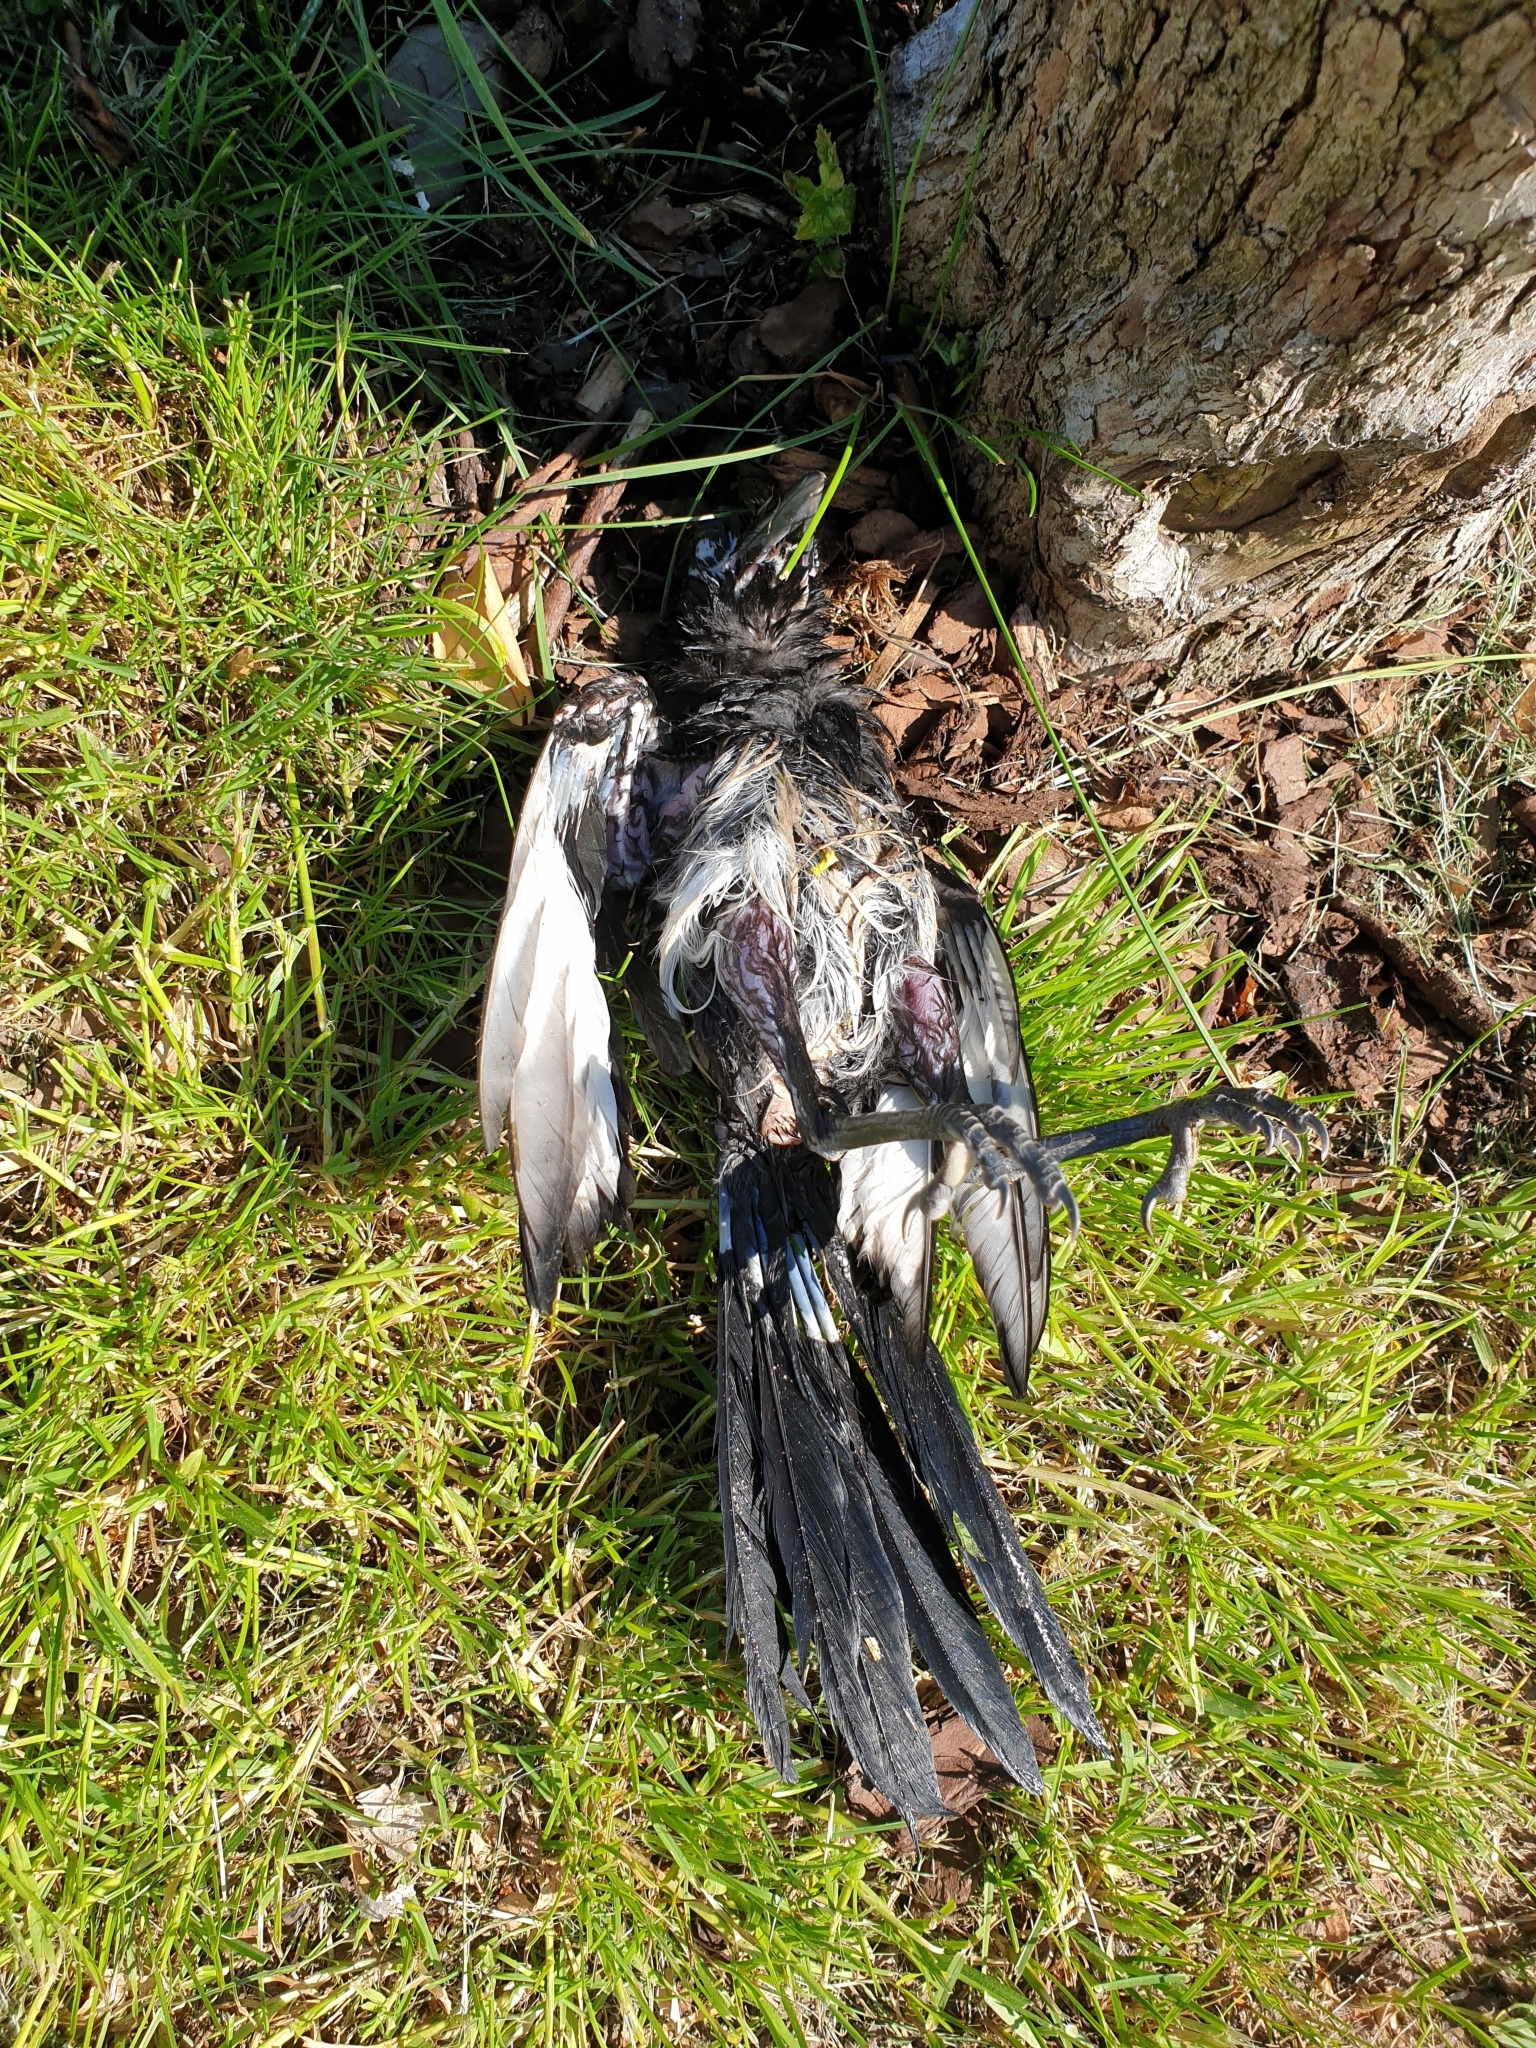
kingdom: Animalia
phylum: Chordata
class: Aves
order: Passeriformes
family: Corvidae
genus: Pica
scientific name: Pica pica
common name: Eurasian magpie
